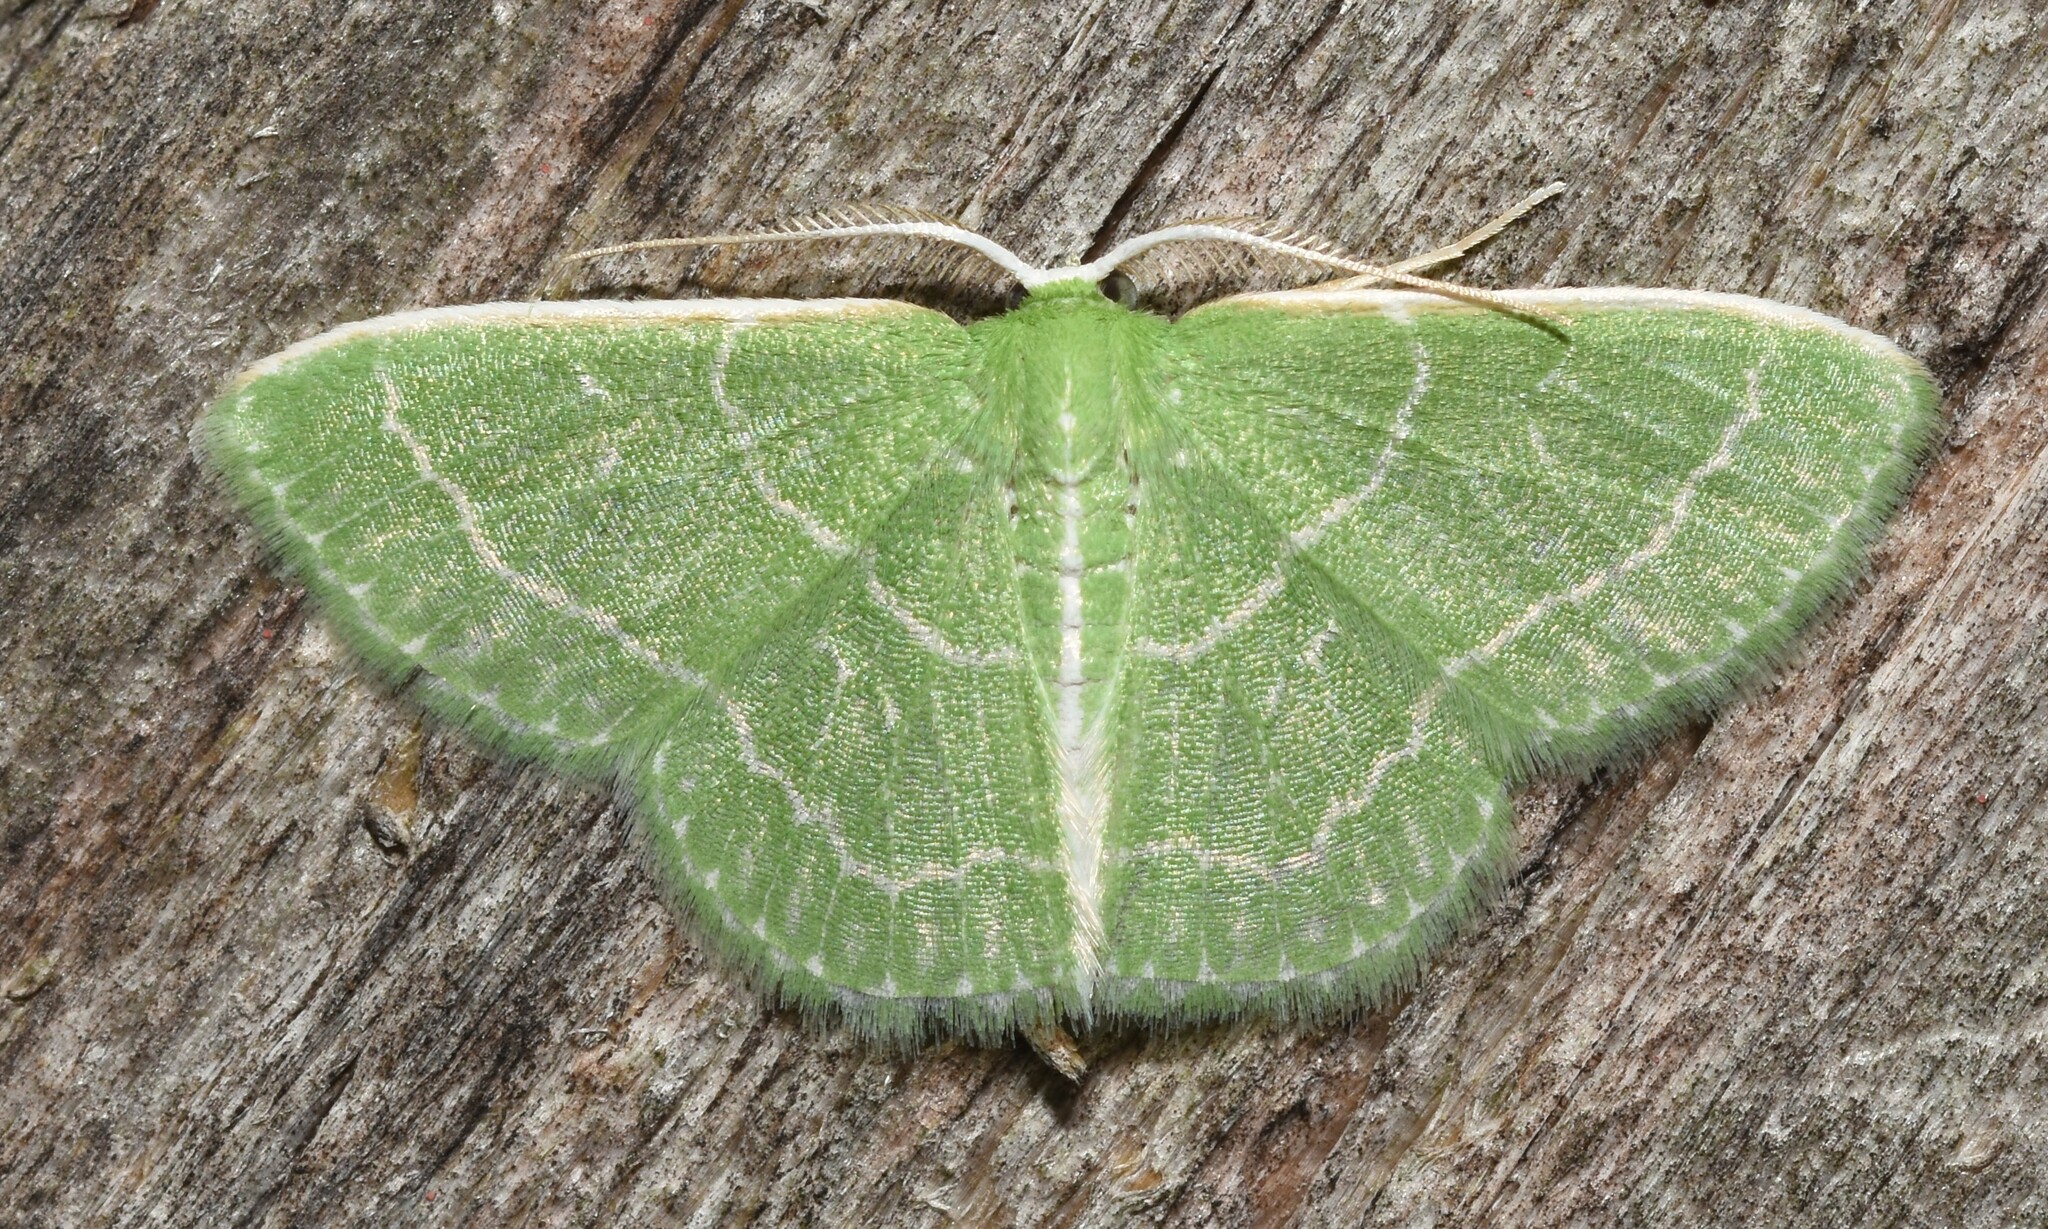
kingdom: Animalia
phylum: Arthropoda
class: Insecta
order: Lepidoptera
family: Geometridae
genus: Synchlora
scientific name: Synchlora aerata
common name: Wavy-lined emerald
